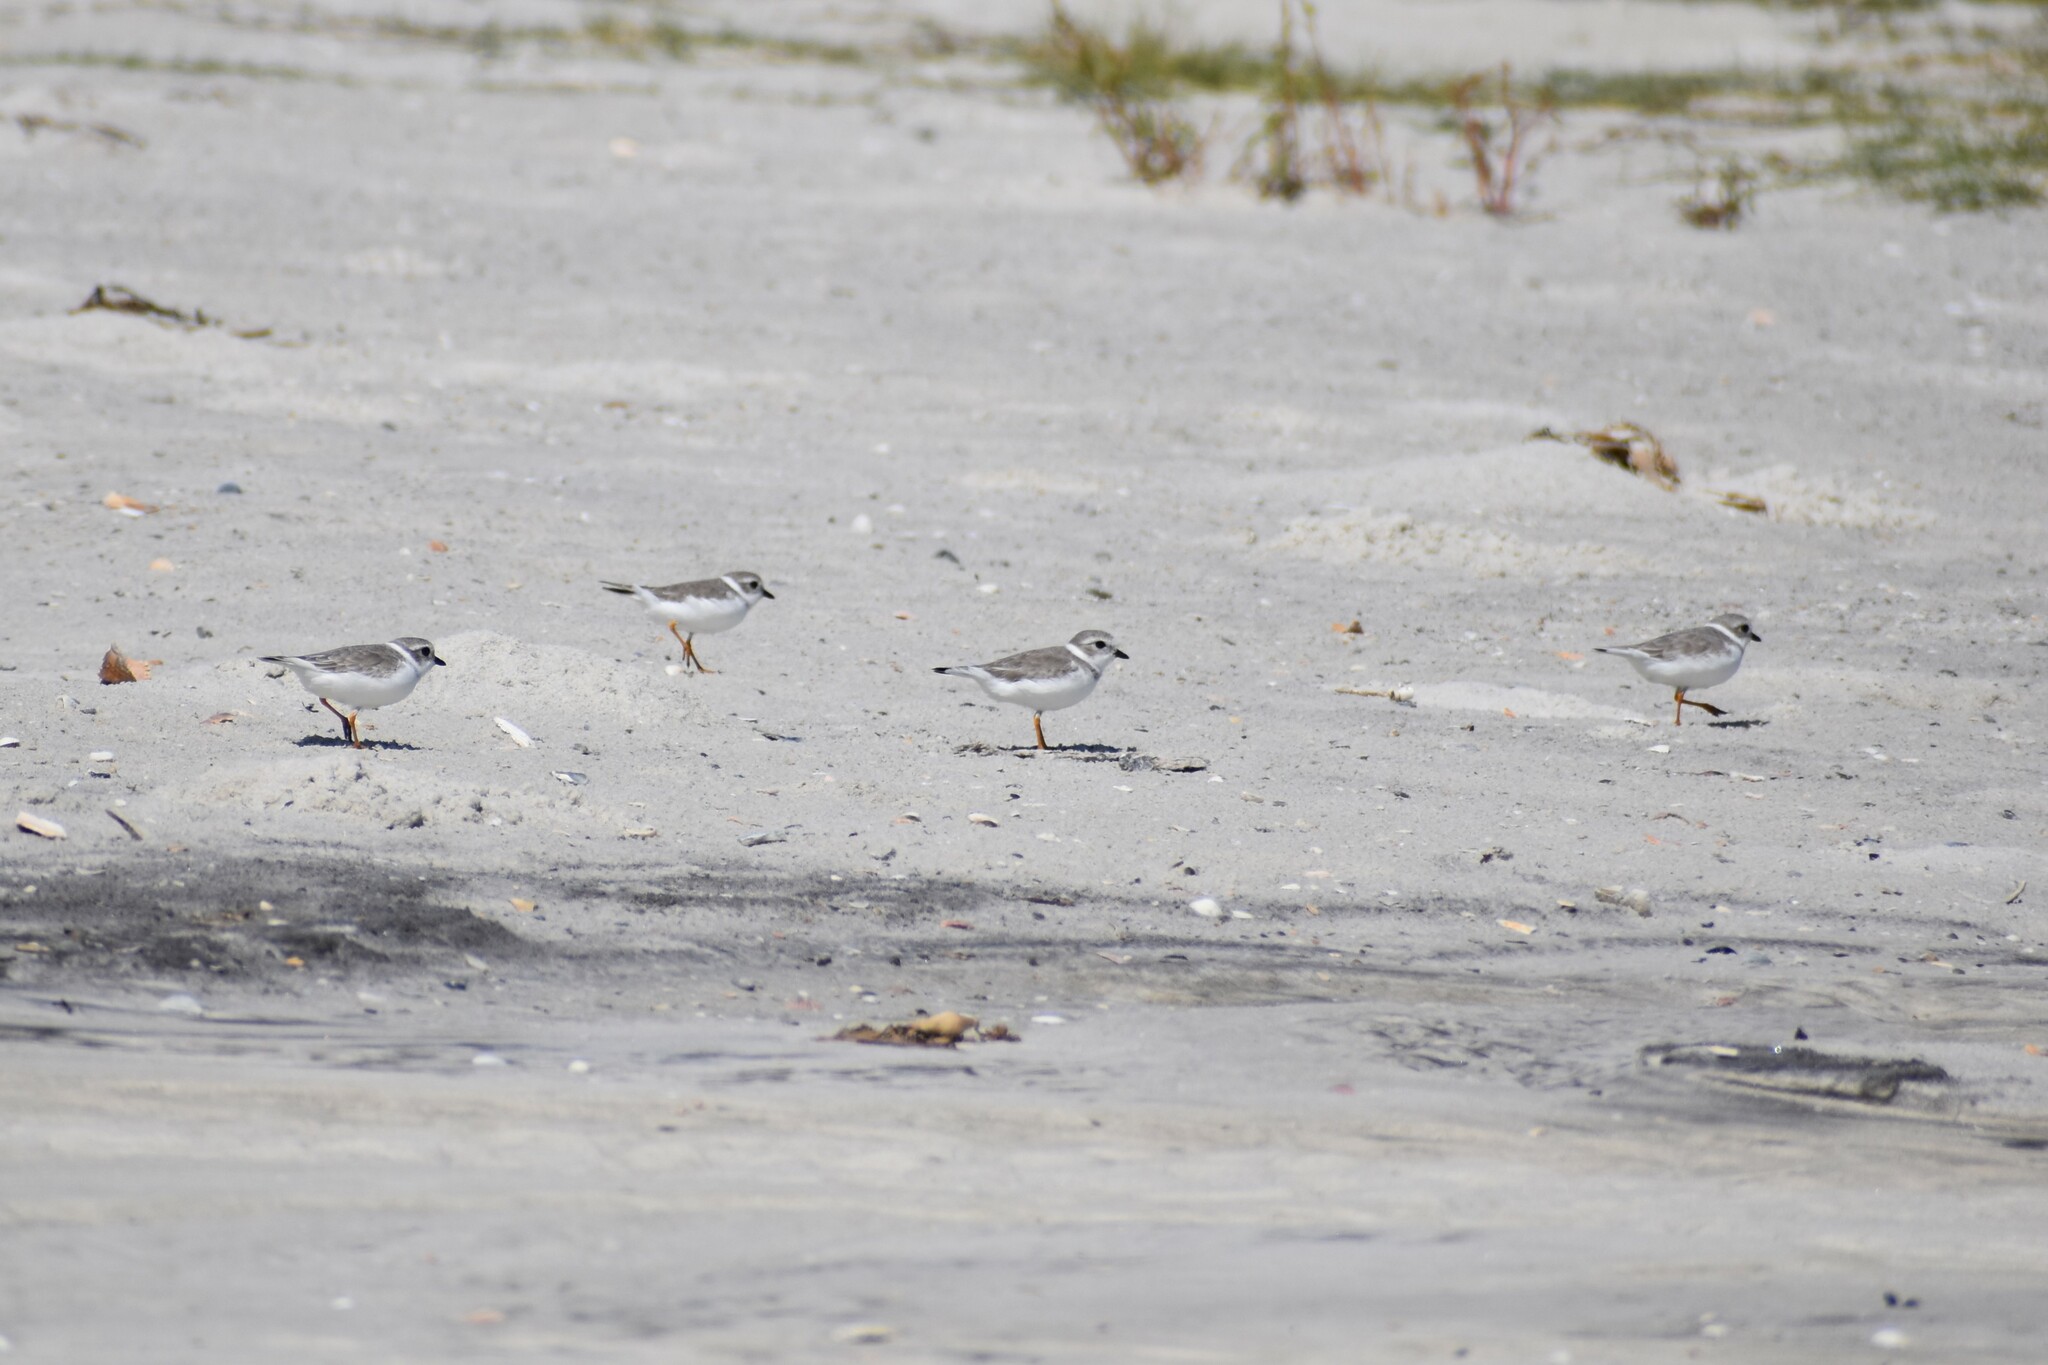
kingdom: Animalia
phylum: Chordata
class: Aves
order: Charadriiformes
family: Charadriidae
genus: Charadrius
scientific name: Charadrius melodus
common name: Piping plover
